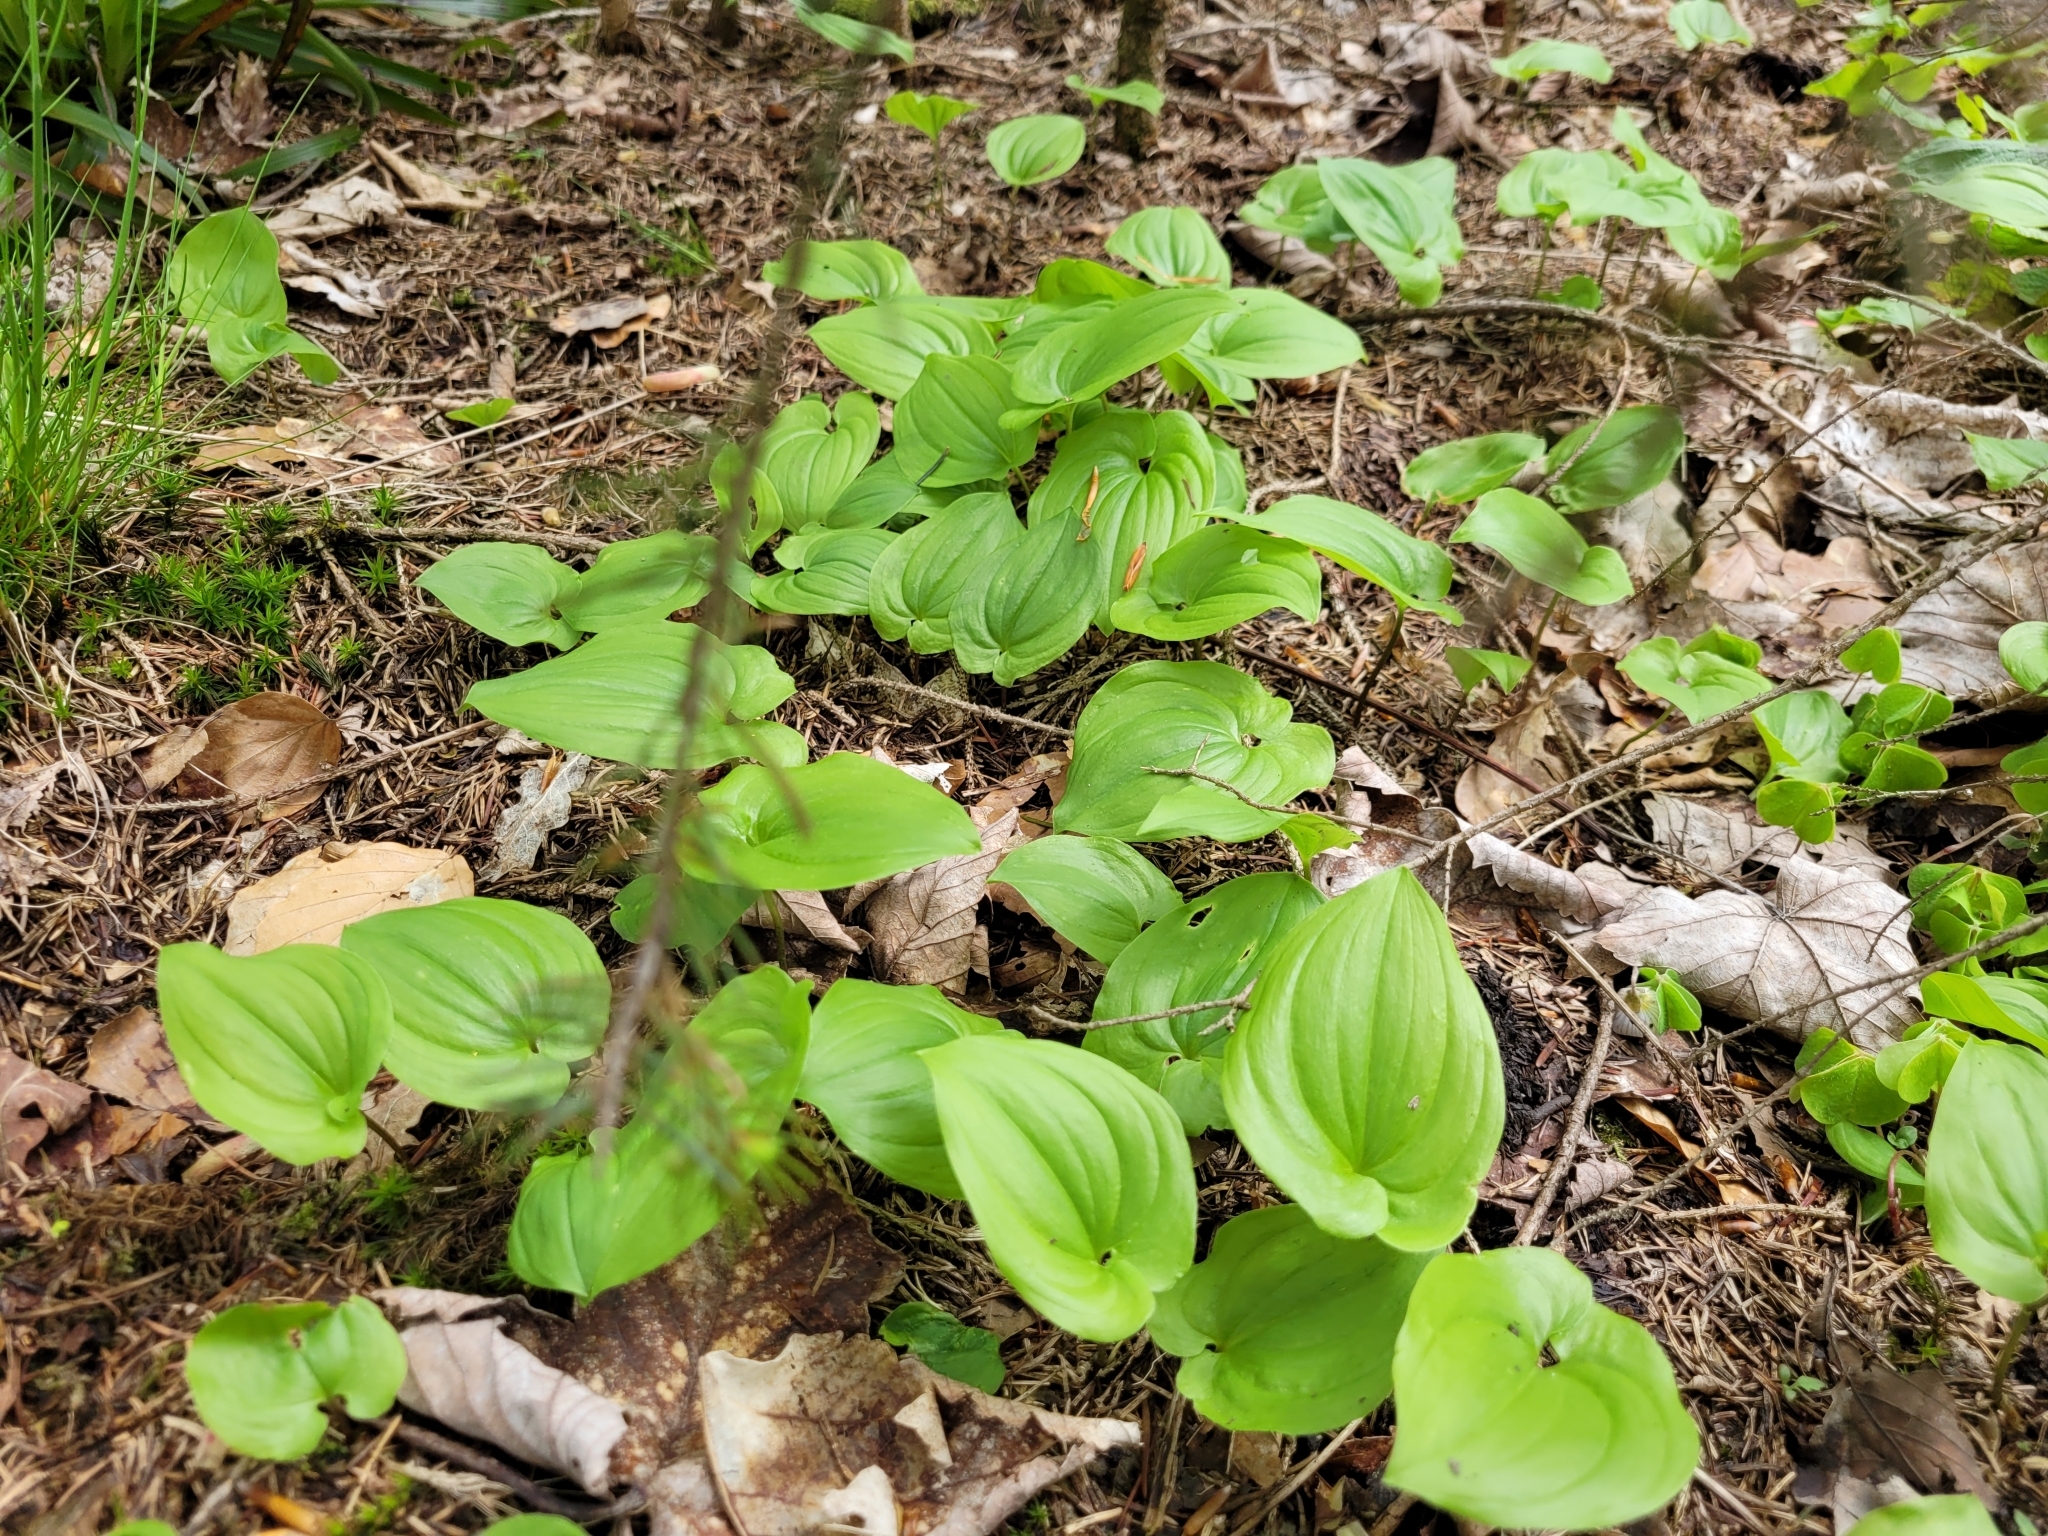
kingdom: Plantae
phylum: Tracheophyta
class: Liliopsida
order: Asparagales
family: Asparagaceae
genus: Maianthemum
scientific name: Maianthemum bifolium
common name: May lily
